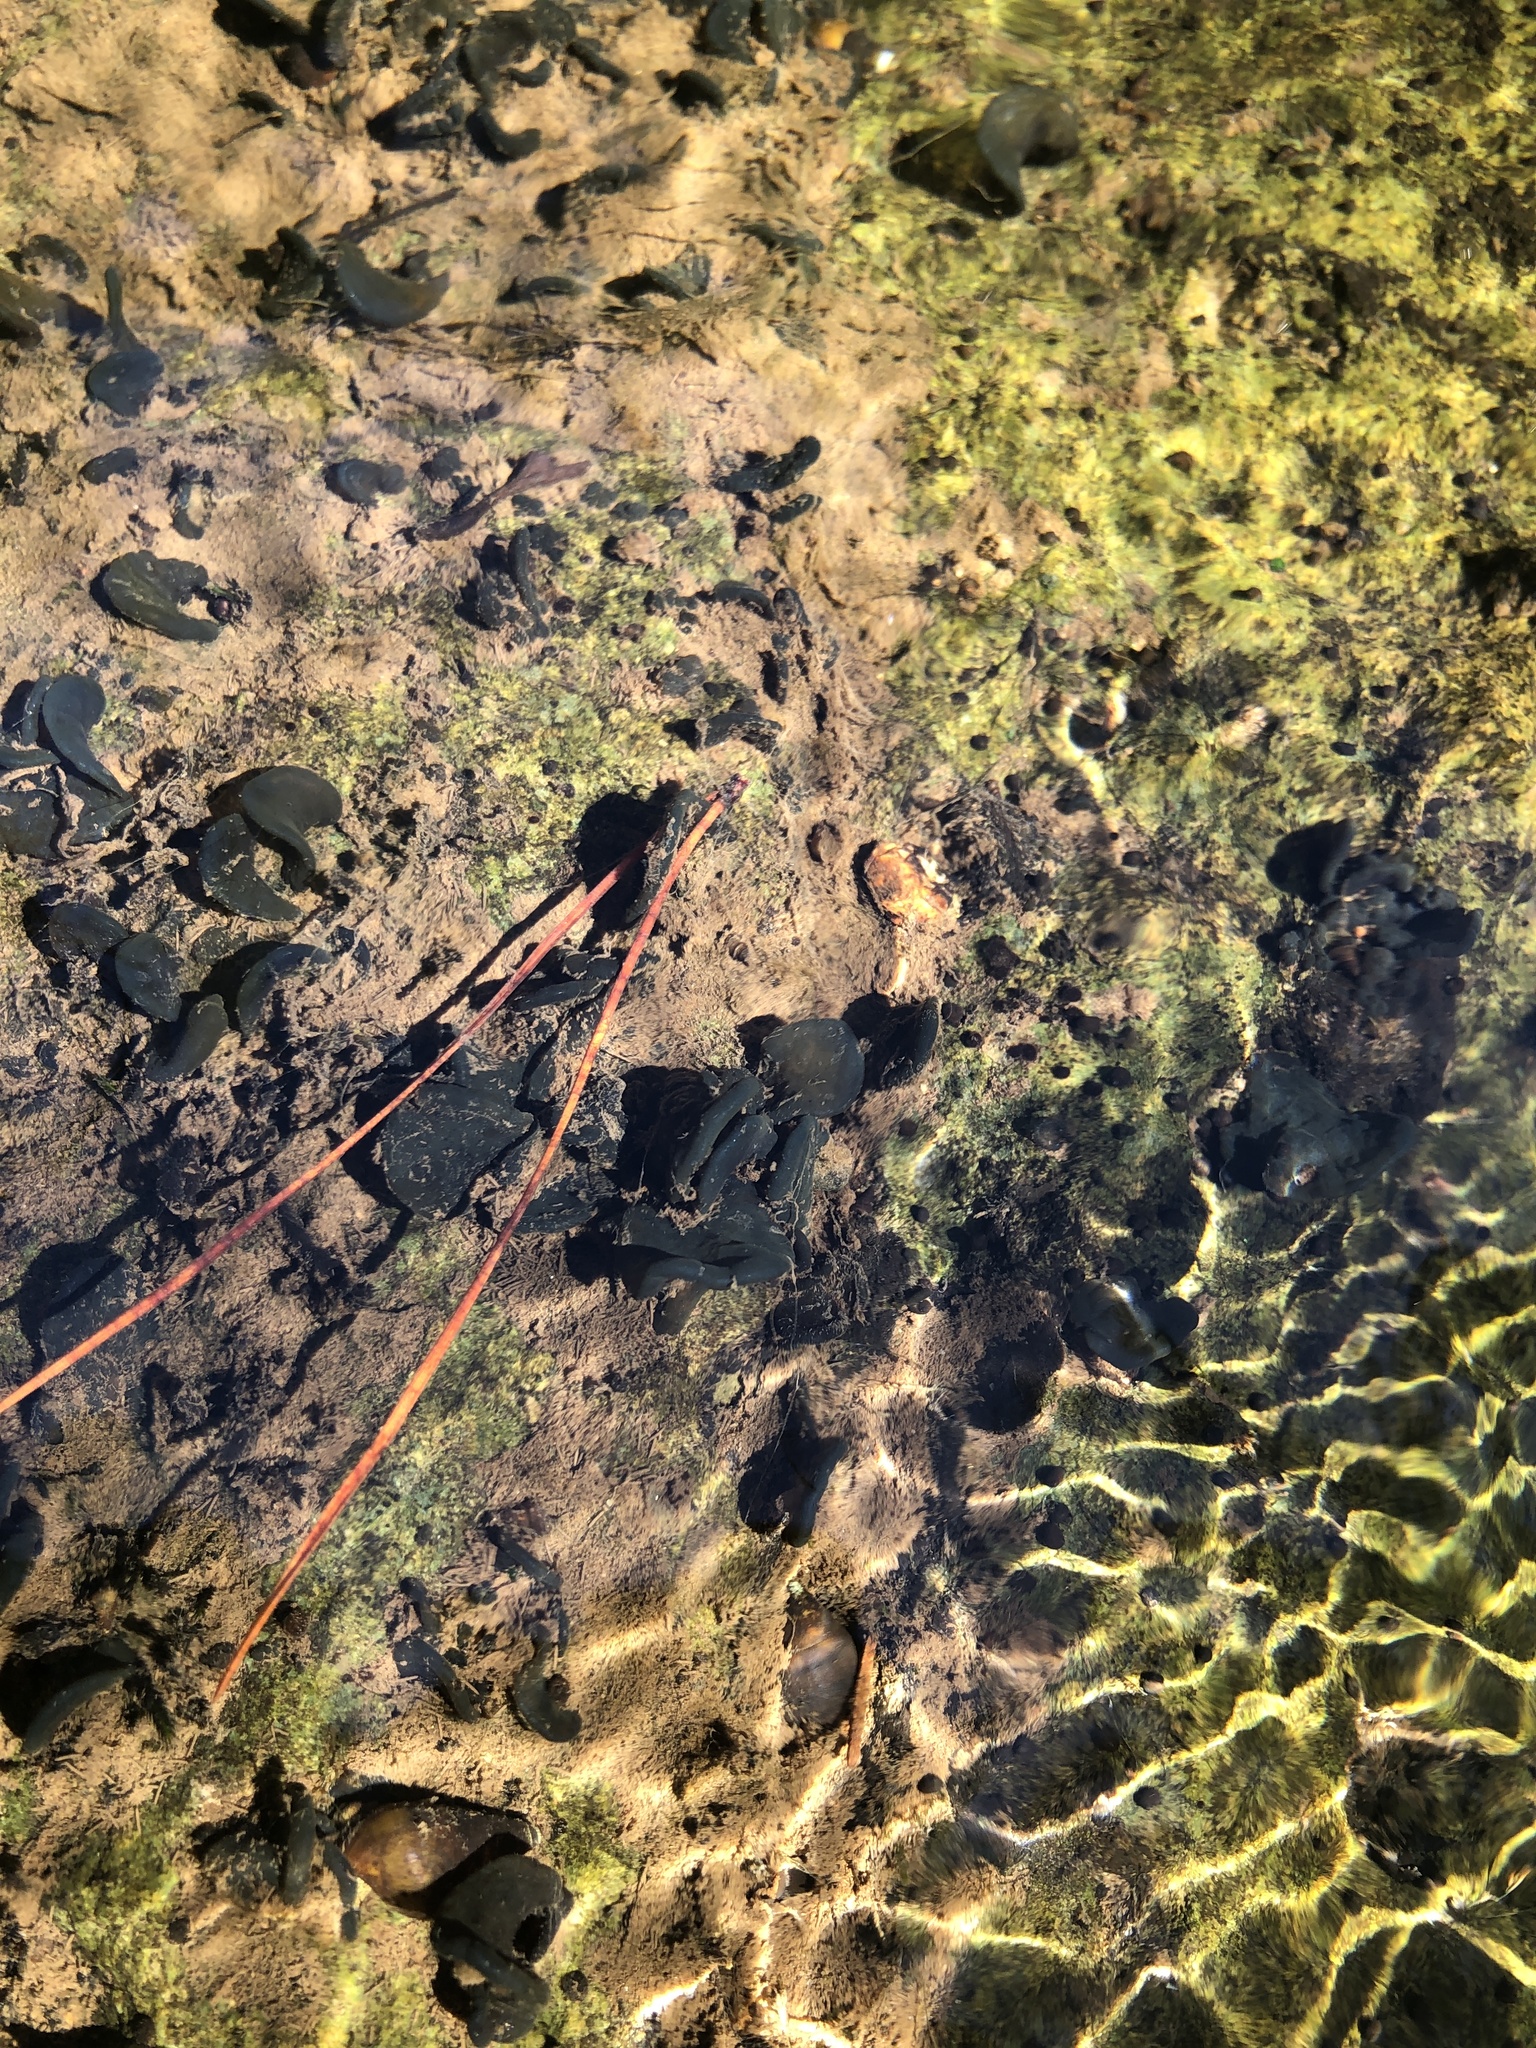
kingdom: Bacteria
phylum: Cyanobacteria
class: Cyanobacteriia
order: Cyanobacteriales
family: Nostocaceae
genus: Nostoc
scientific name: Nostoc parmelioides
